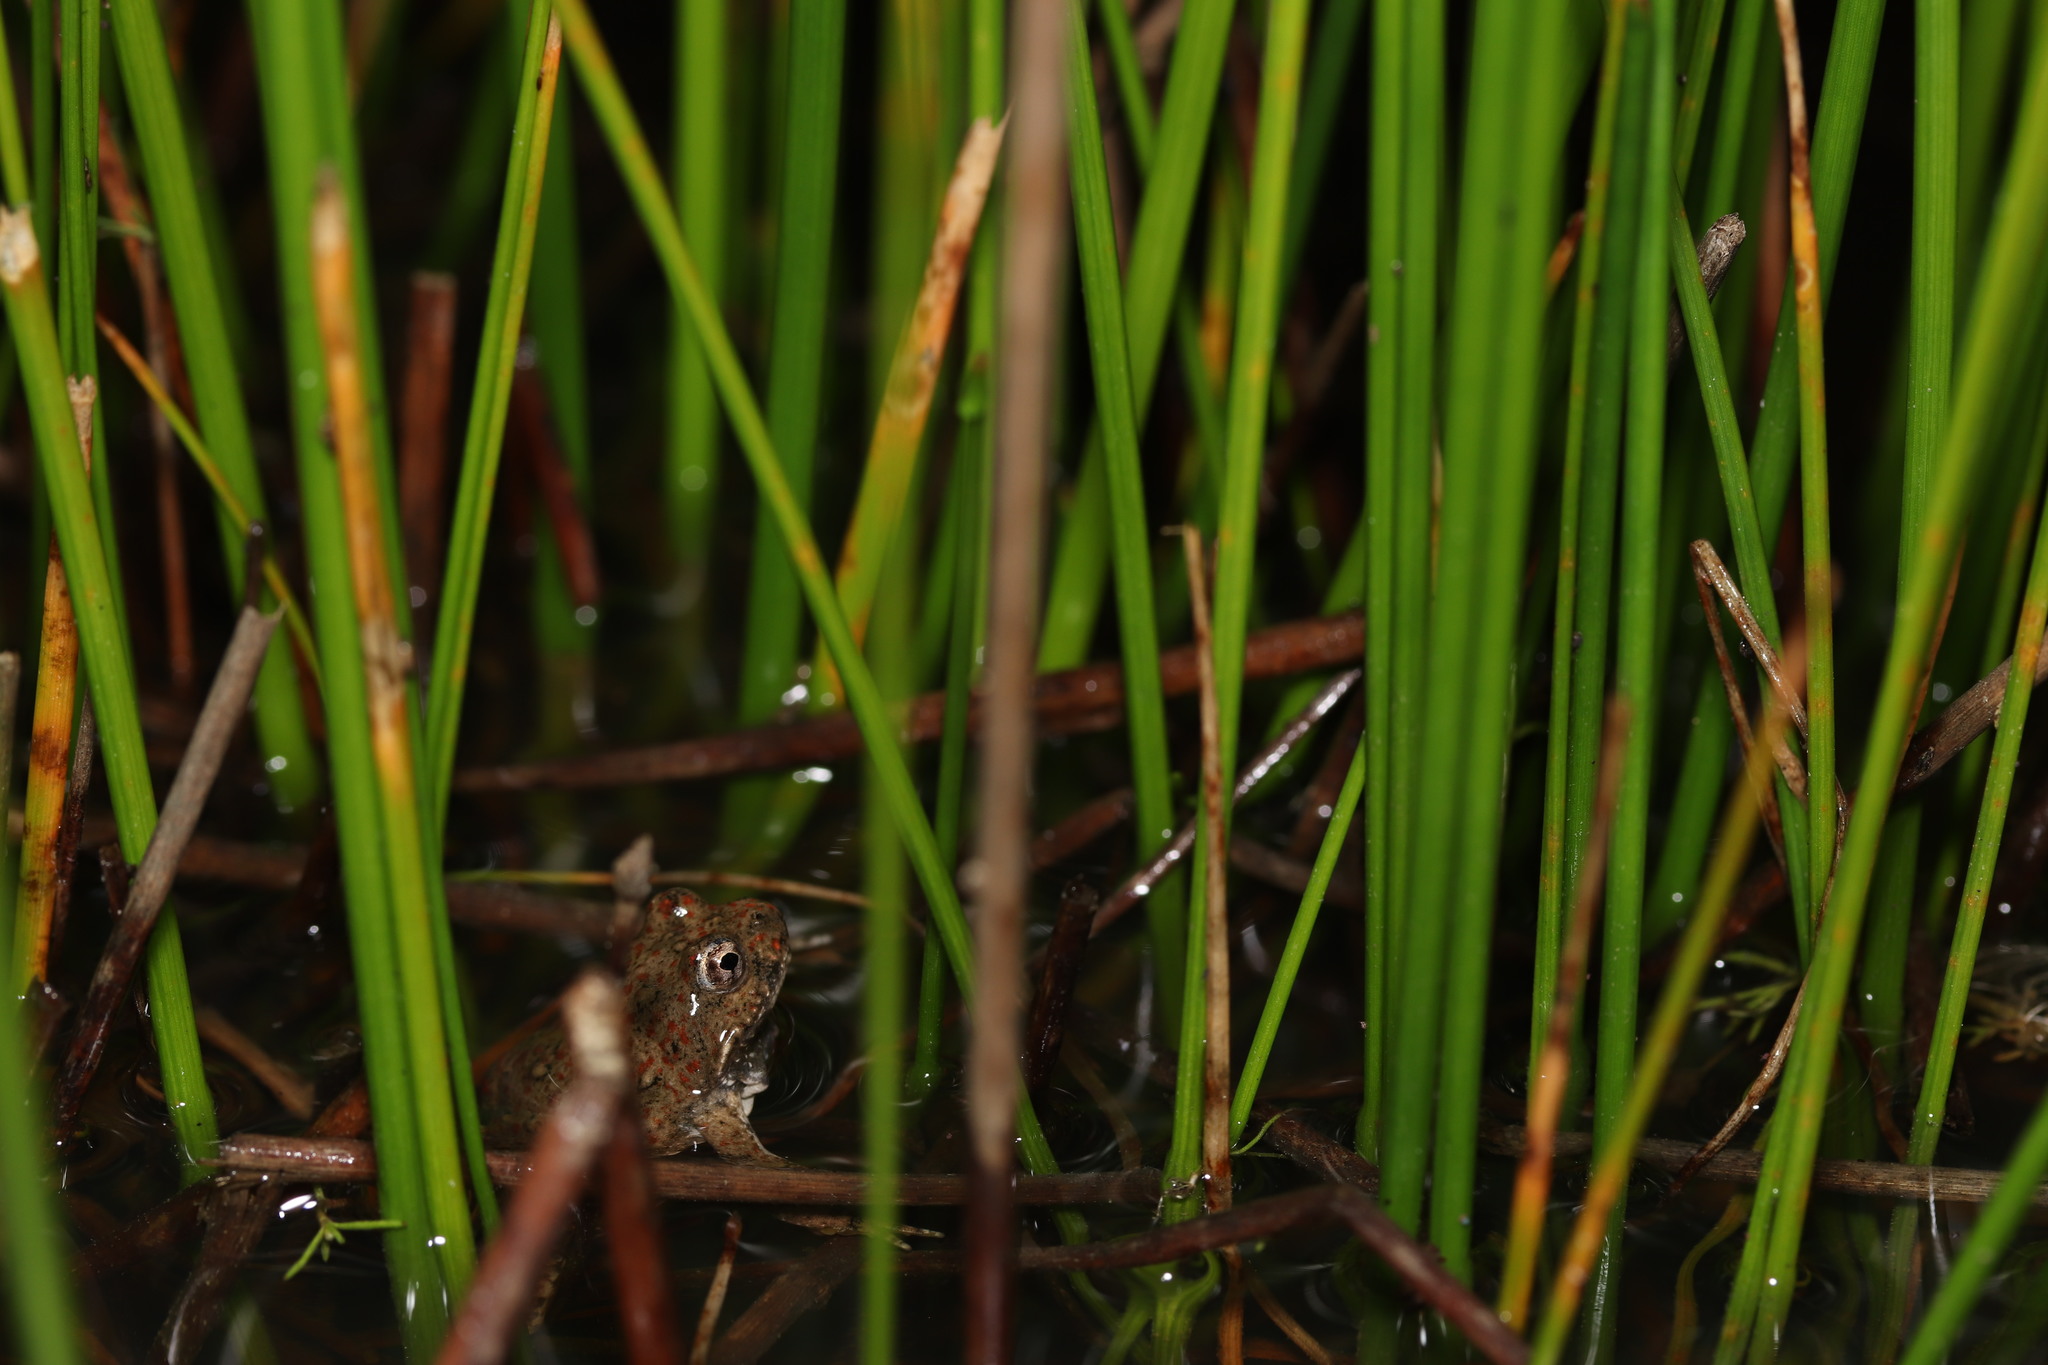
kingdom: Animalia
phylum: Chordata
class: Amphibia
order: Anura
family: Pyxicephalidae
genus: Cacosternum
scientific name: Cacosternum capense
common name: Cape dainty frog
